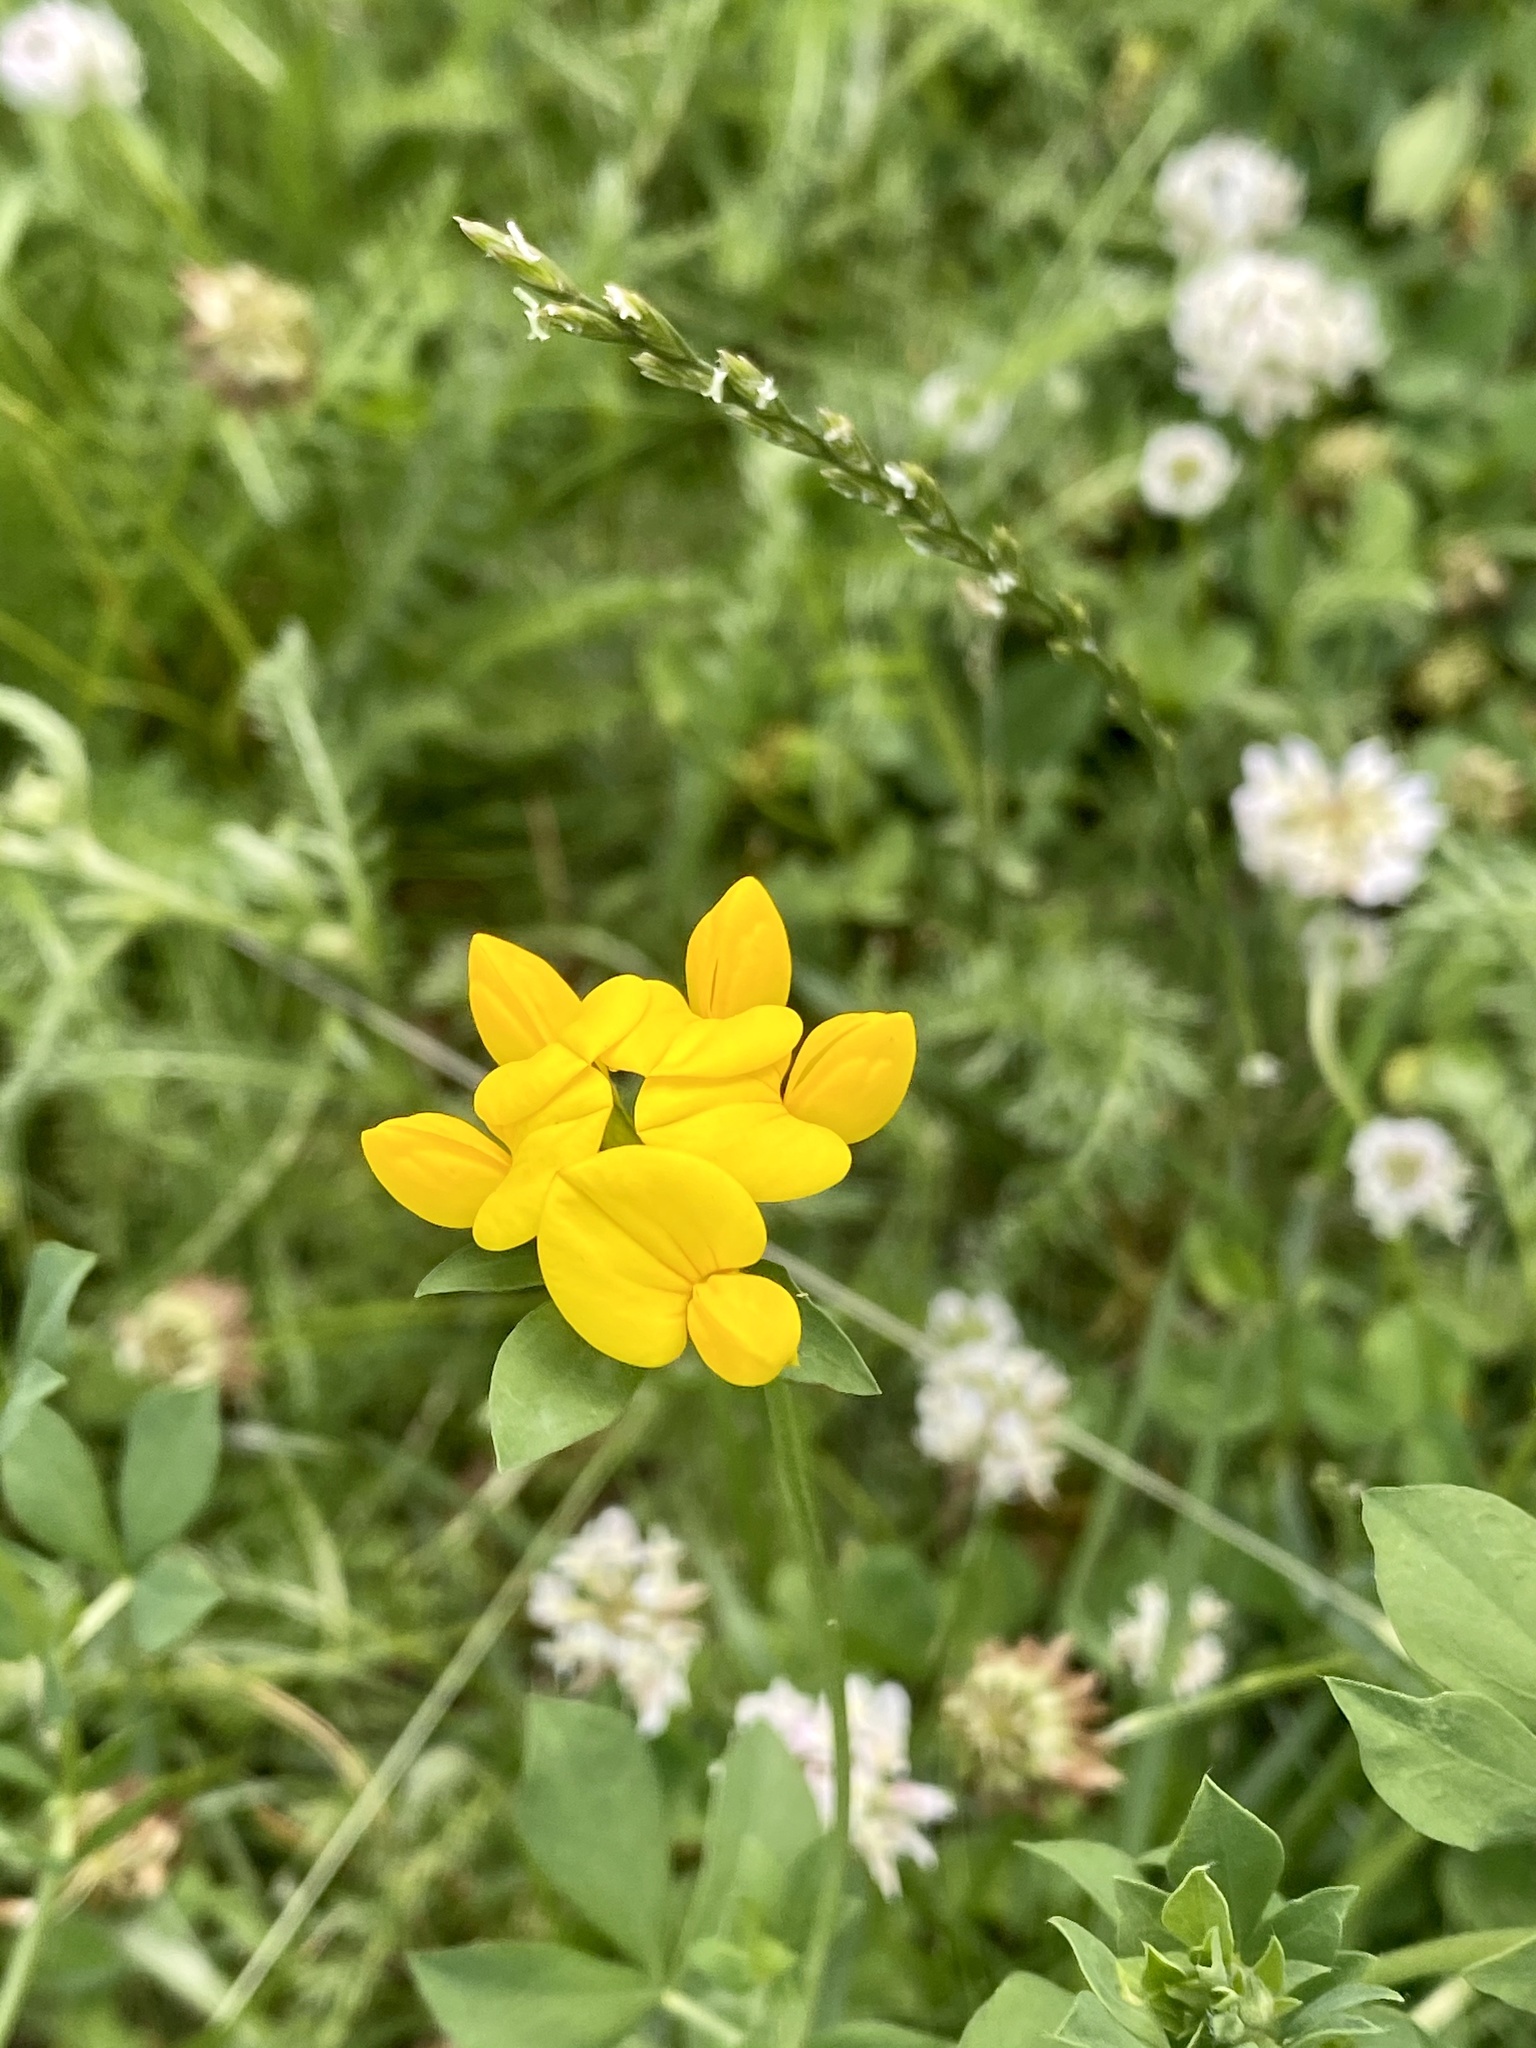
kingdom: Plantae
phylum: Tracheophyta
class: Magnoliopsida
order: Fabales
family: Fabaceae
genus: Lotus
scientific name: Lotus corniculatus
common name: Common bird's-foot-trefoil
